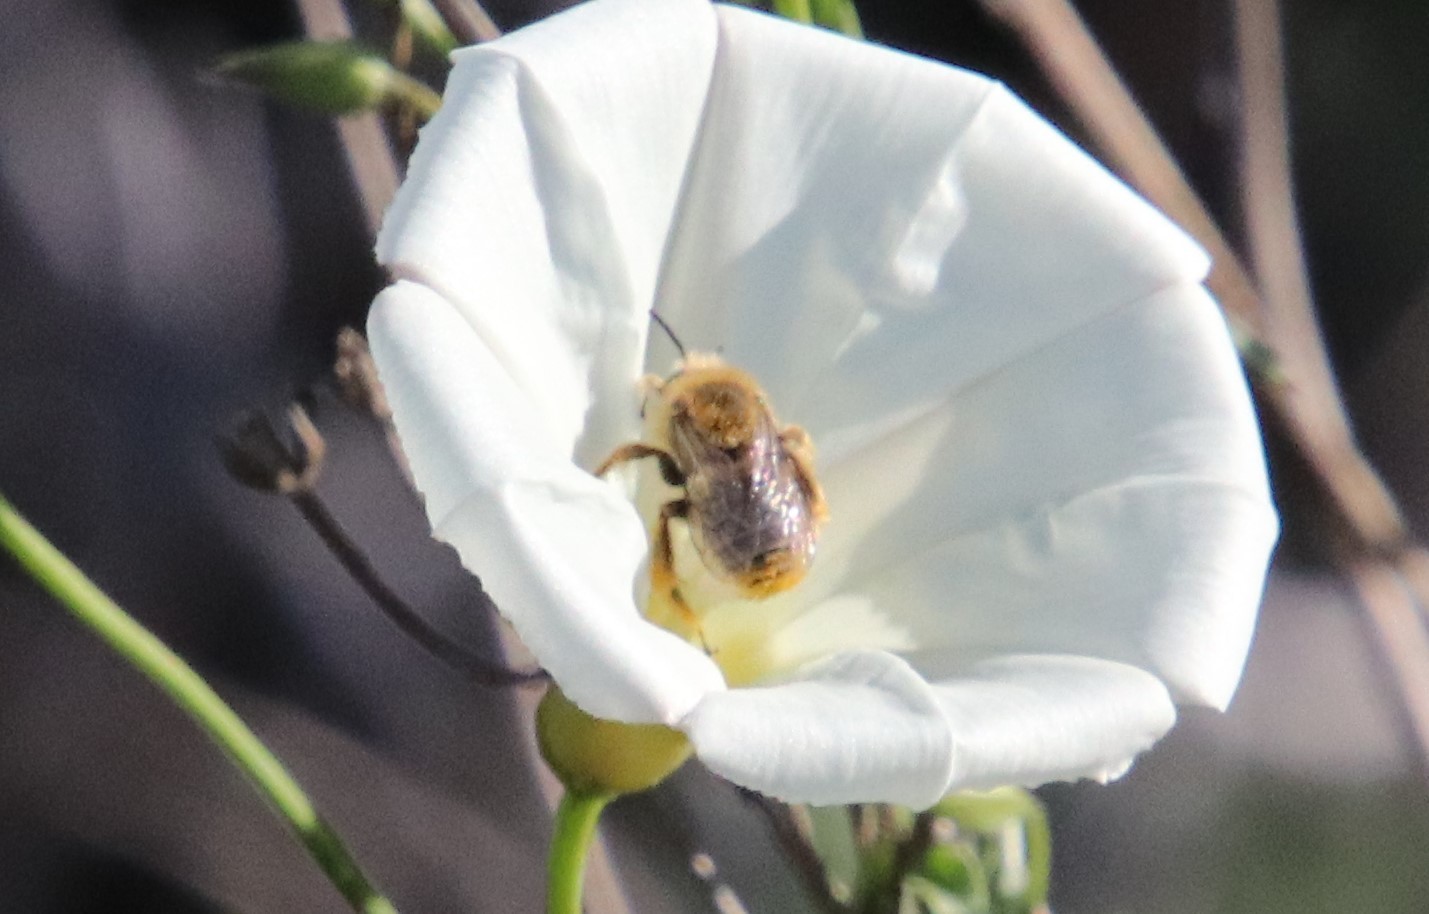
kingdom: Animalia
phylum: Arthropoda
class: Insecta
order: Hymenoptera
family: Apidae
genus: Diadasia
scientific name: Diadasia
